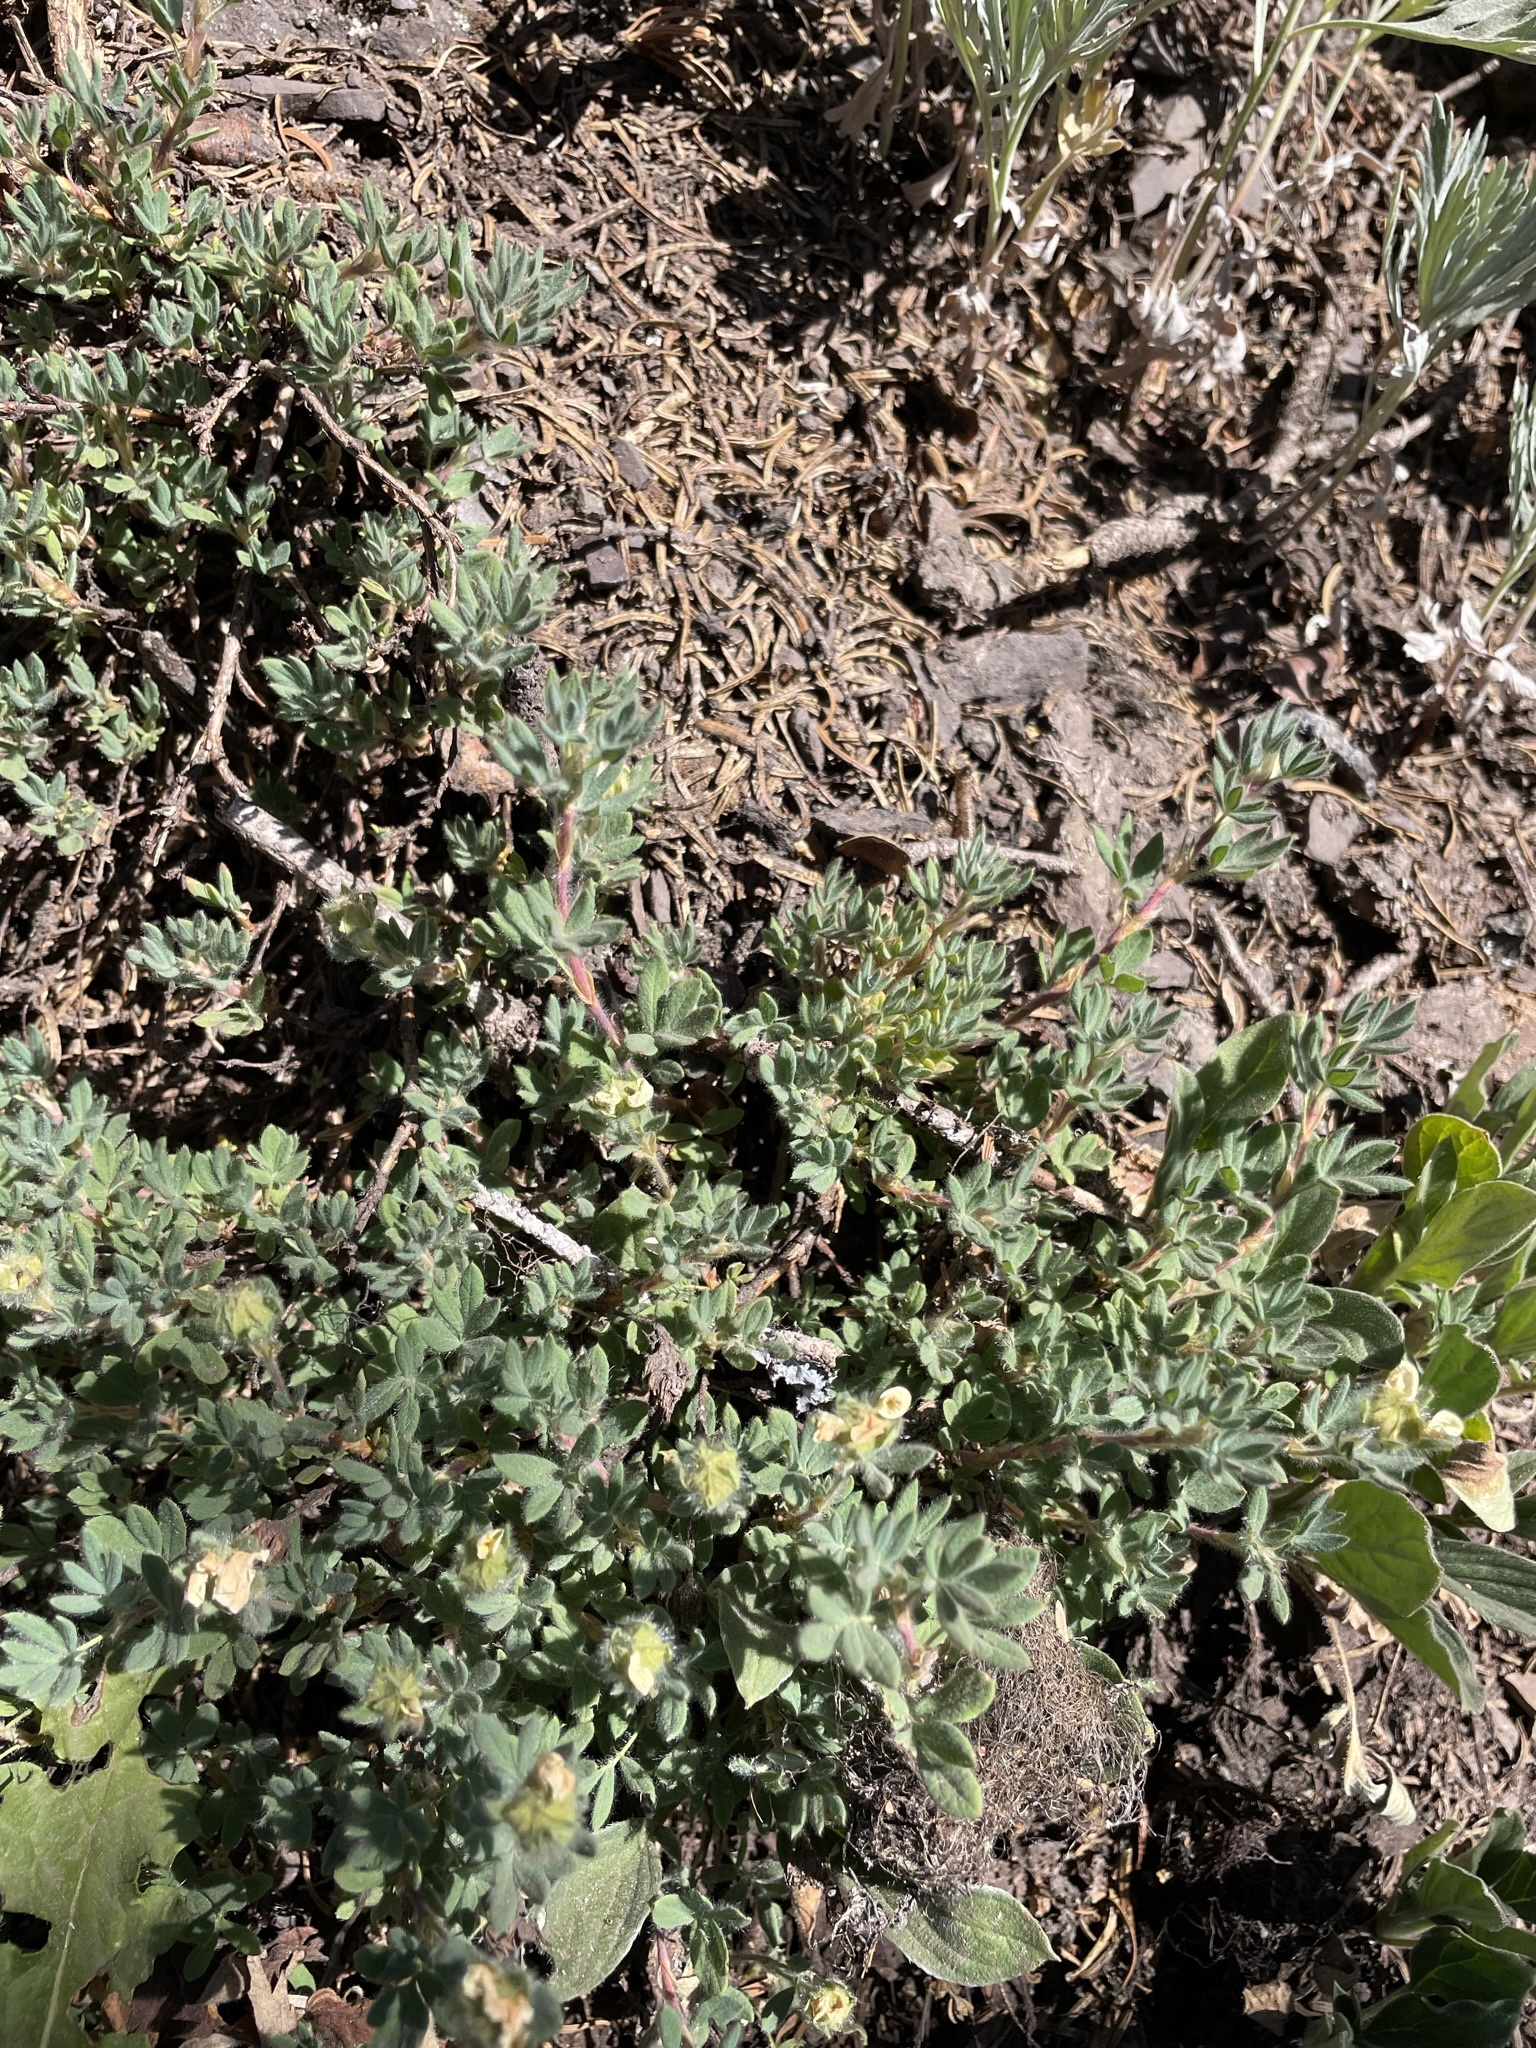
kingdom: Plantae
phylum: Tracheophyta
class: Magnoliopsida
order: Rosales
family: Rosaceae
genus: Dasiphora
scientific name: Dasiphora fruticosa
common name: Shrubby cinquefoil
